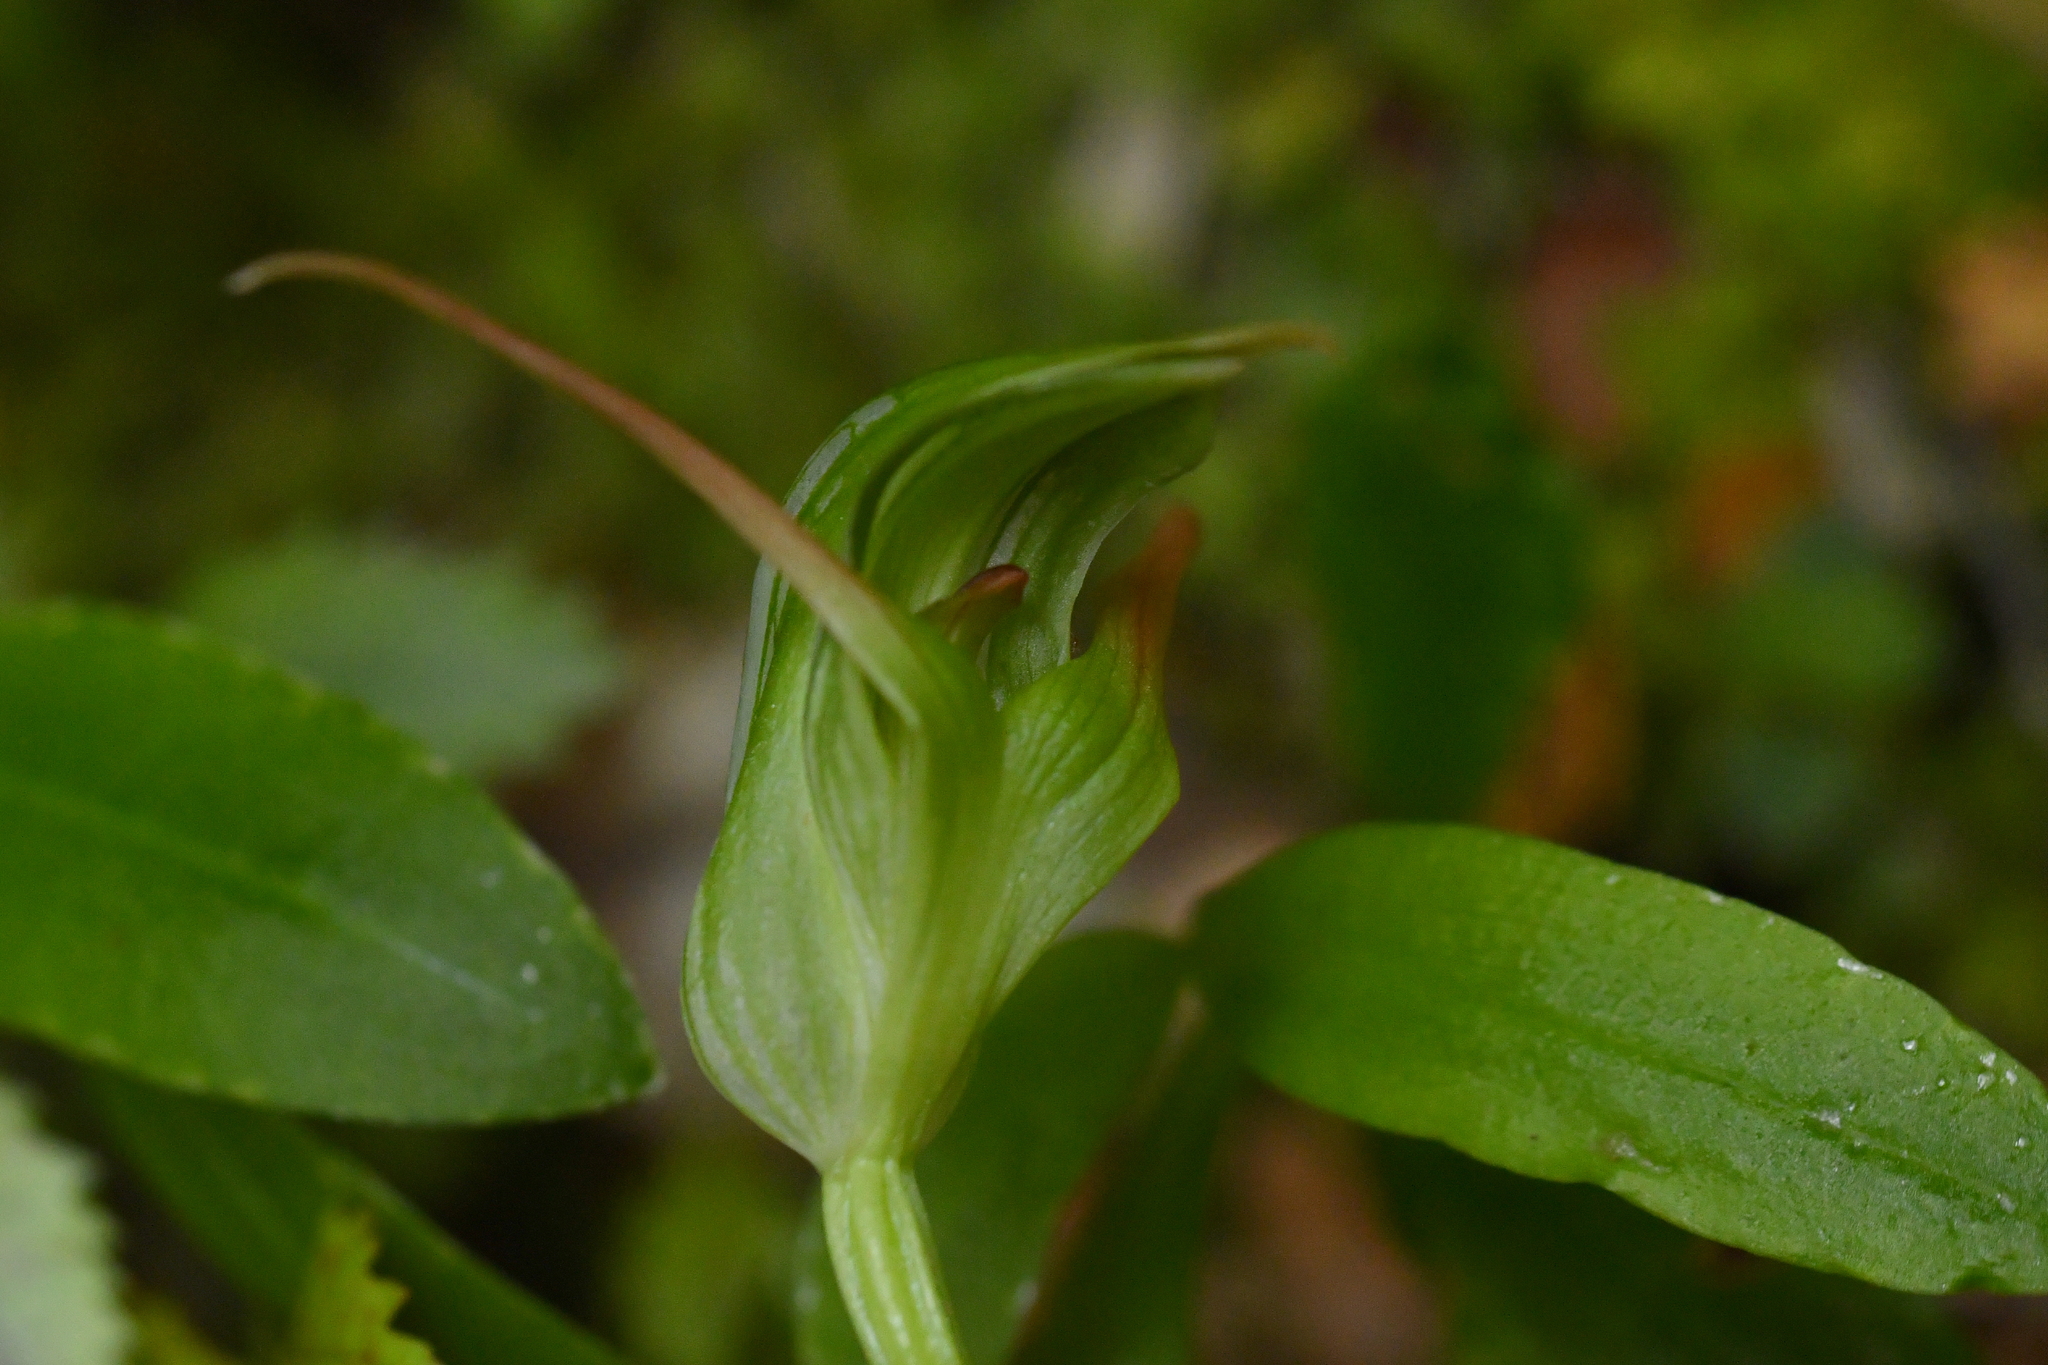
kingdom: Plantae
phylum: Tracheophyta
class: Liliopsida
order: Asparagales
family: Orchidaceae
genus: Pterostylis
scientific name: Pterostylis australis
